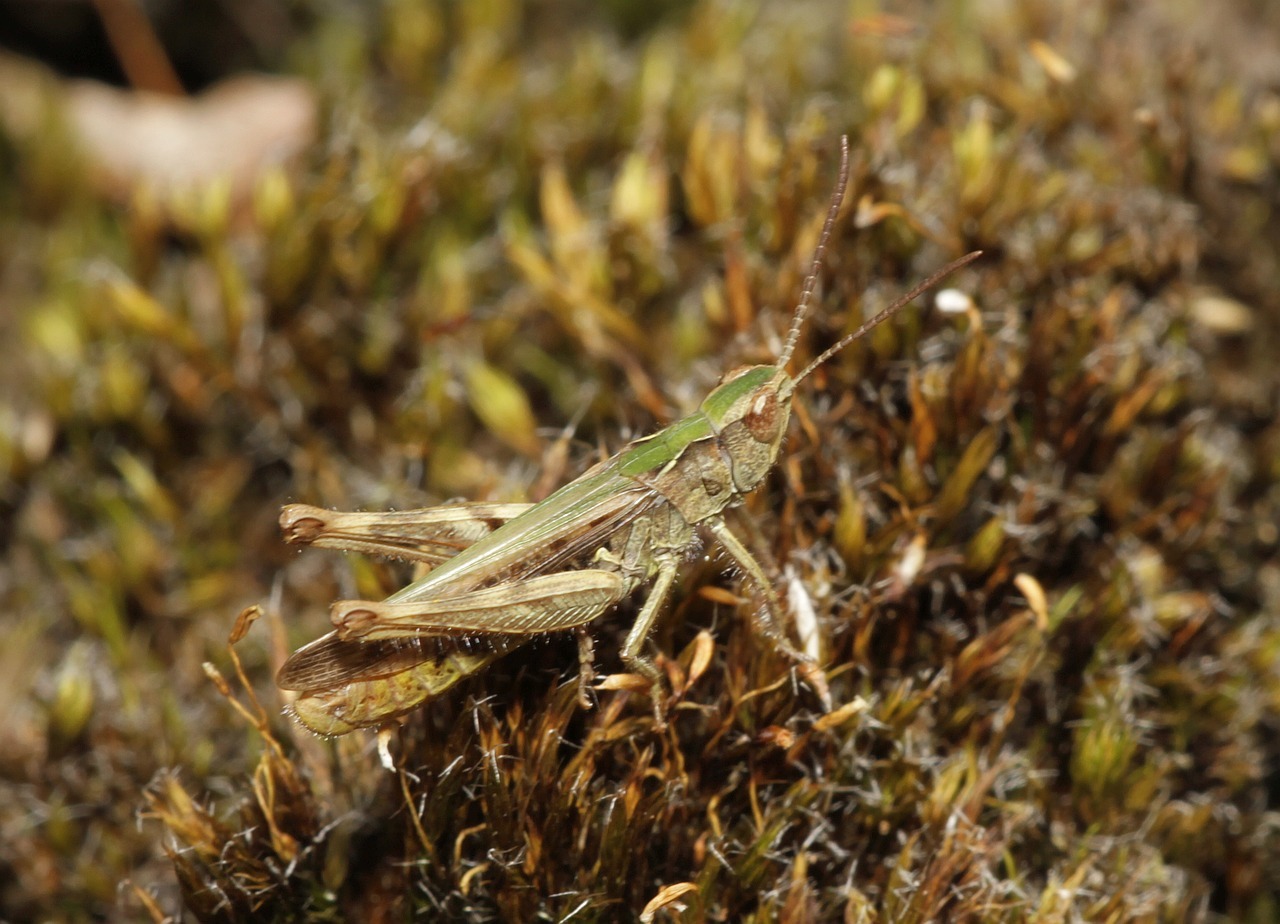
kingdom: Animalia
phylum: Arthropoda
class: Insecta
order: Orthoptera
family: Acrididae
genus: Chorthippus
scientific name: Chorthippus mollis
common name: Lesser field grasshopper
